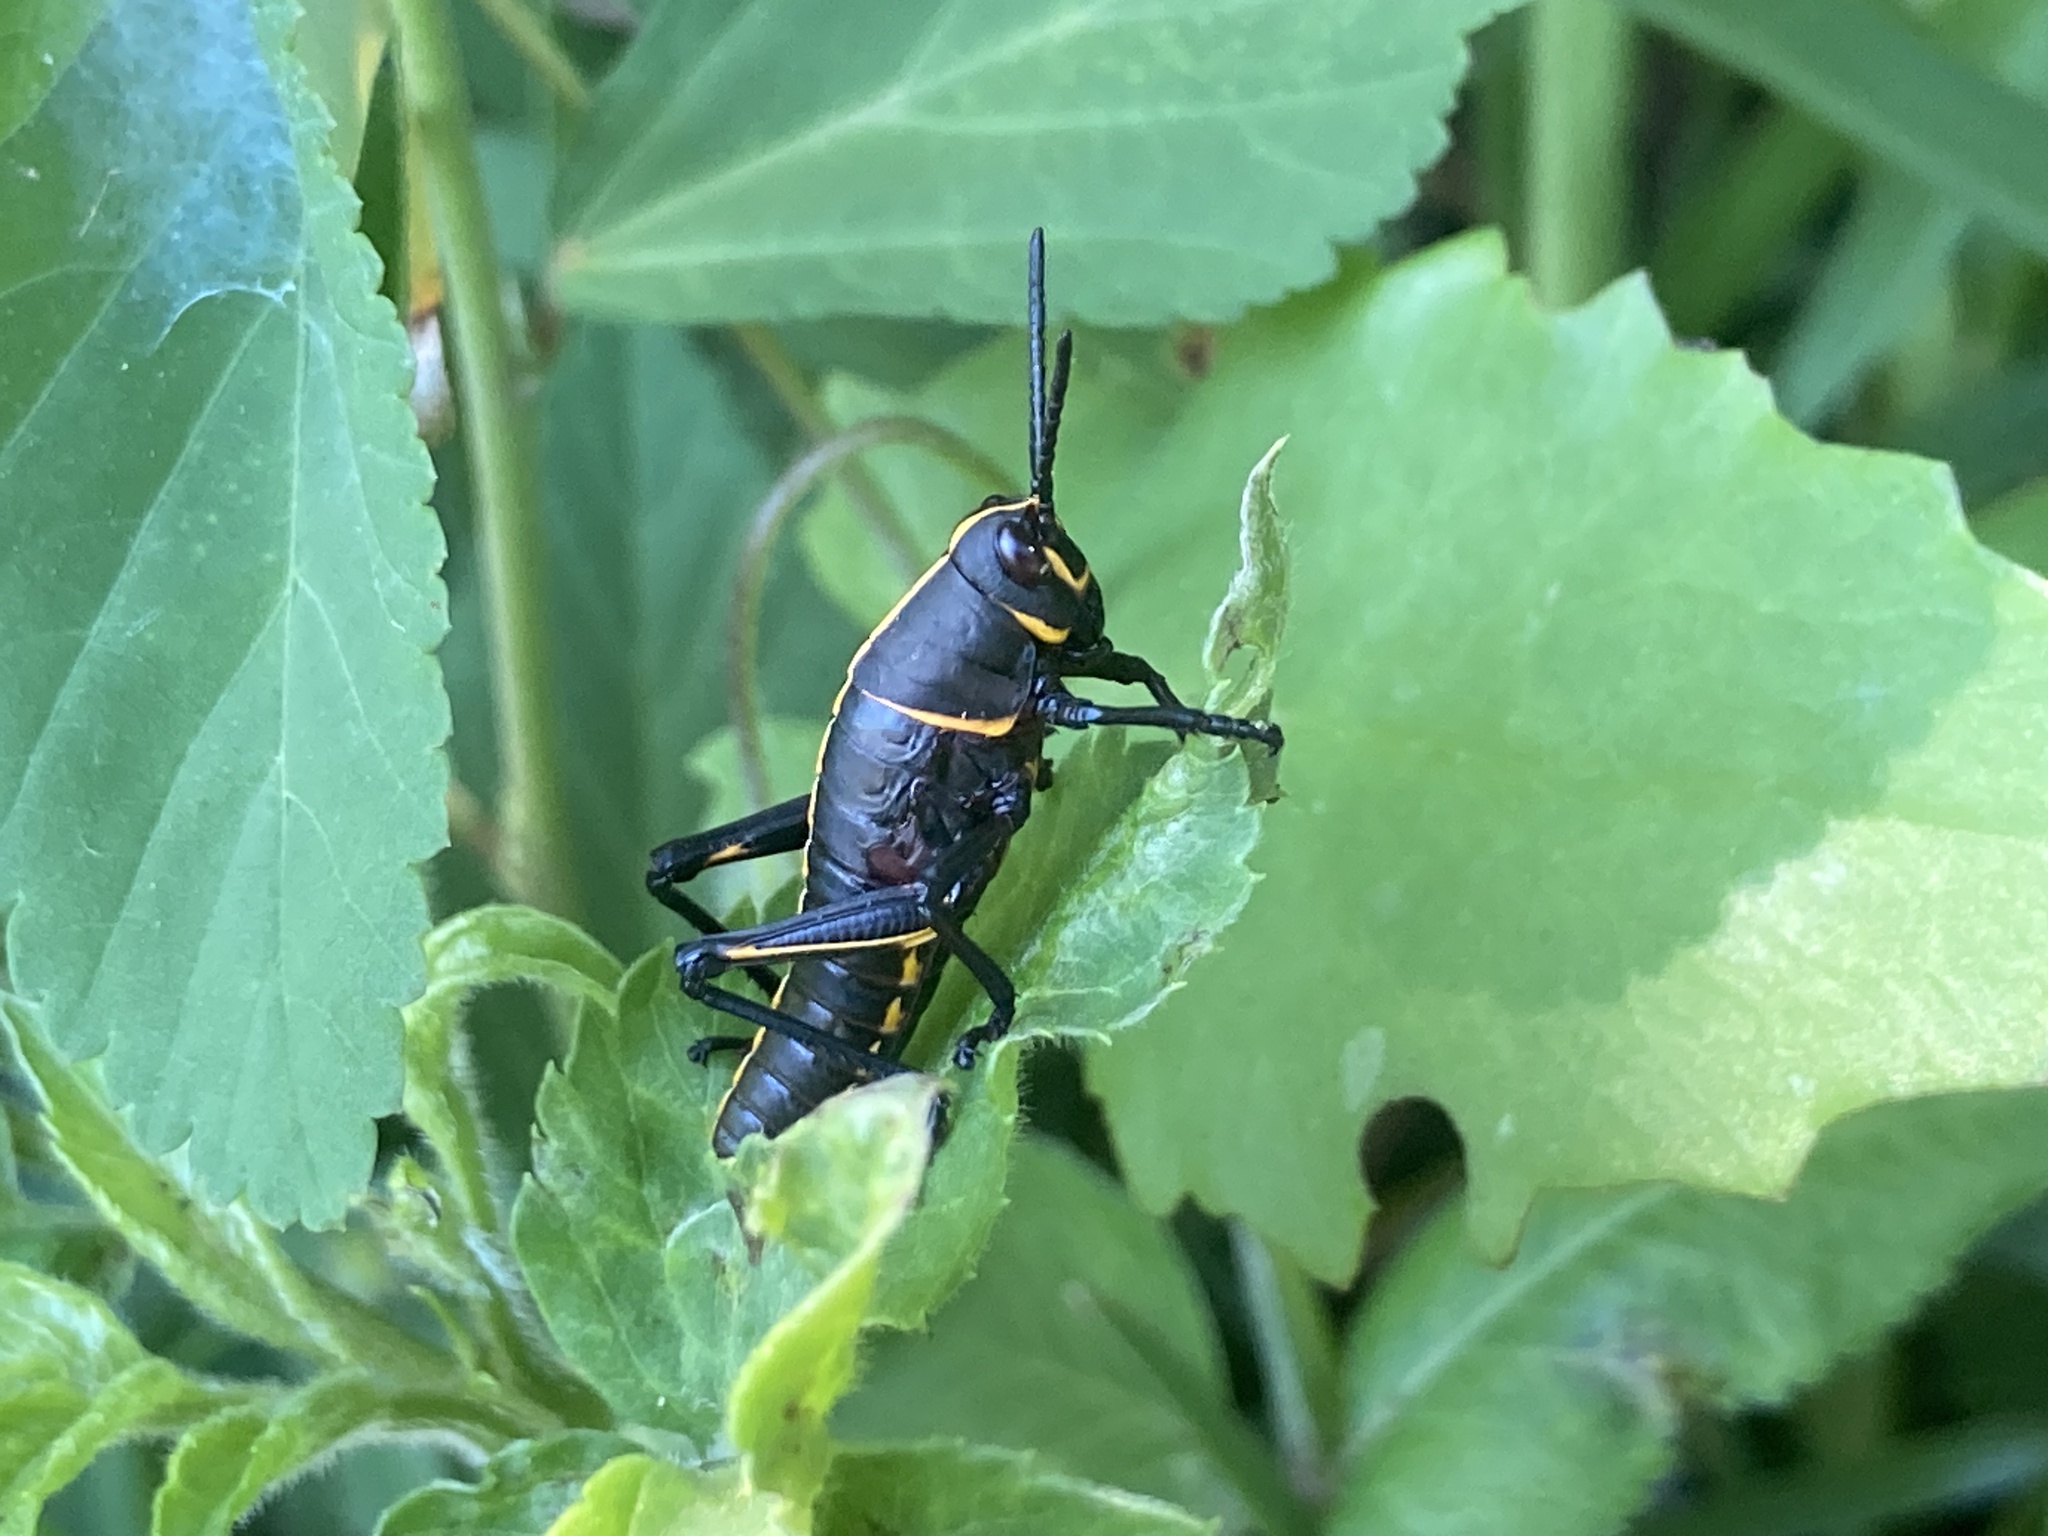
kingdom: Animalia
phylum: Arthropoda
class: Insecta
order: Orthoptera
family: Romaleidae
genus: Romalea
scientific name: Romalea microptera
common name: Eastern lubber grasshopper
